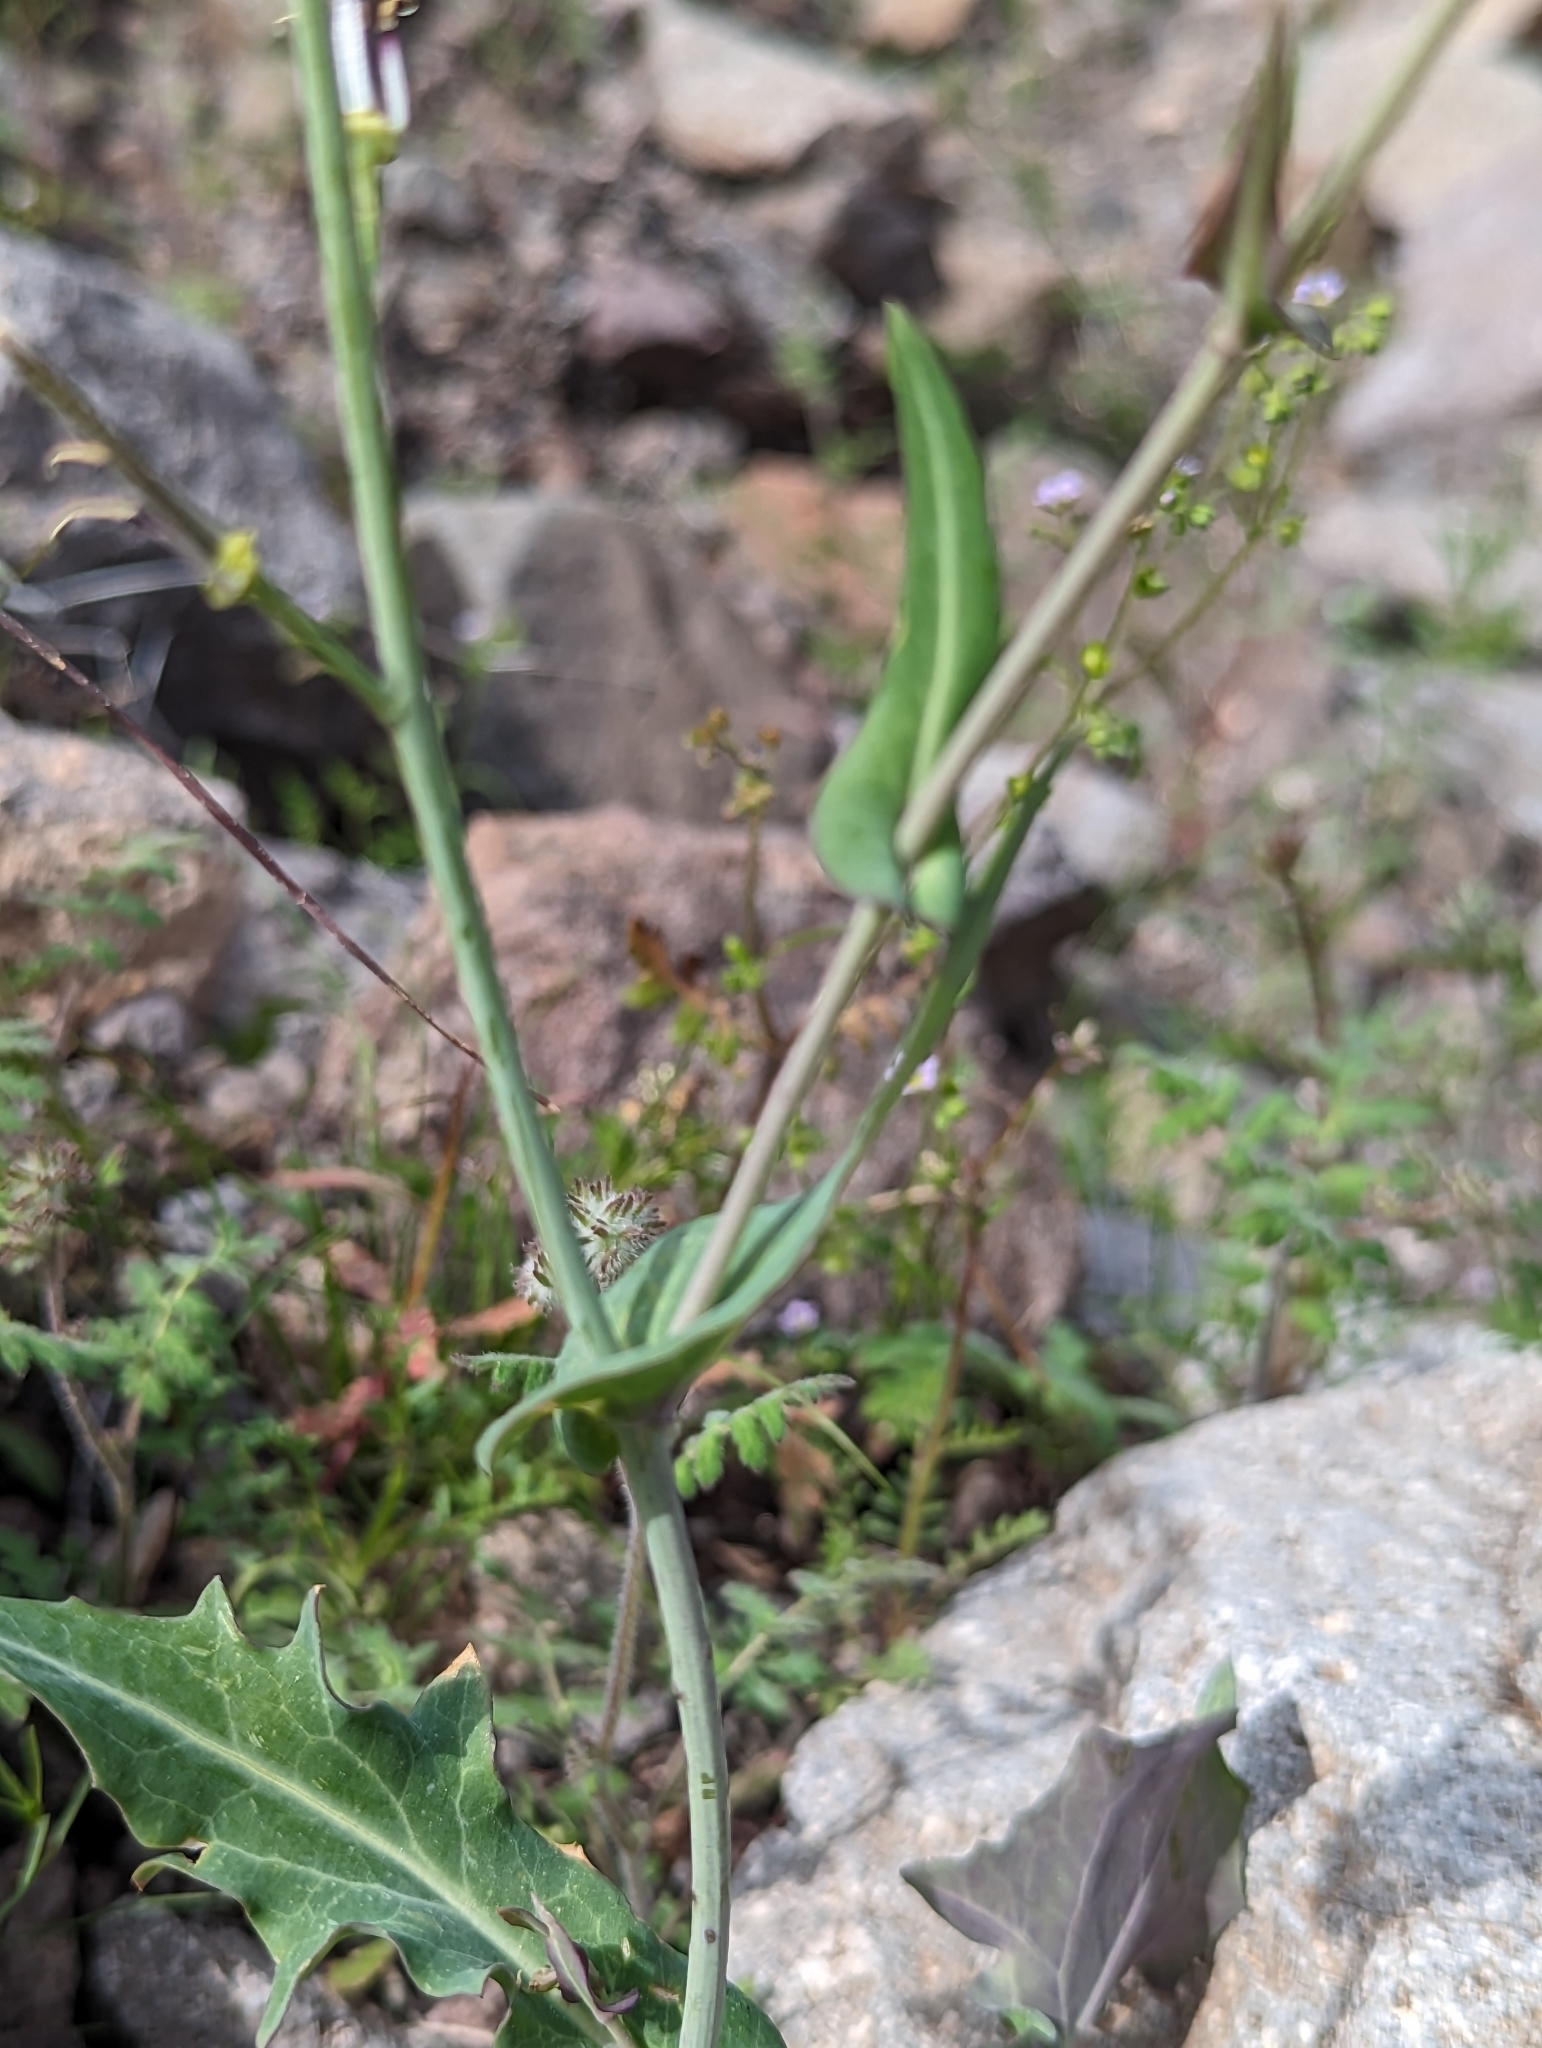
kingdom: Plantae
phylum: Tracheophyta
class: Magnoliopsida
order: Brassicales
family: Brassicaceae
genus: Streptanthus
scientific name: Streptanthus carinatus
